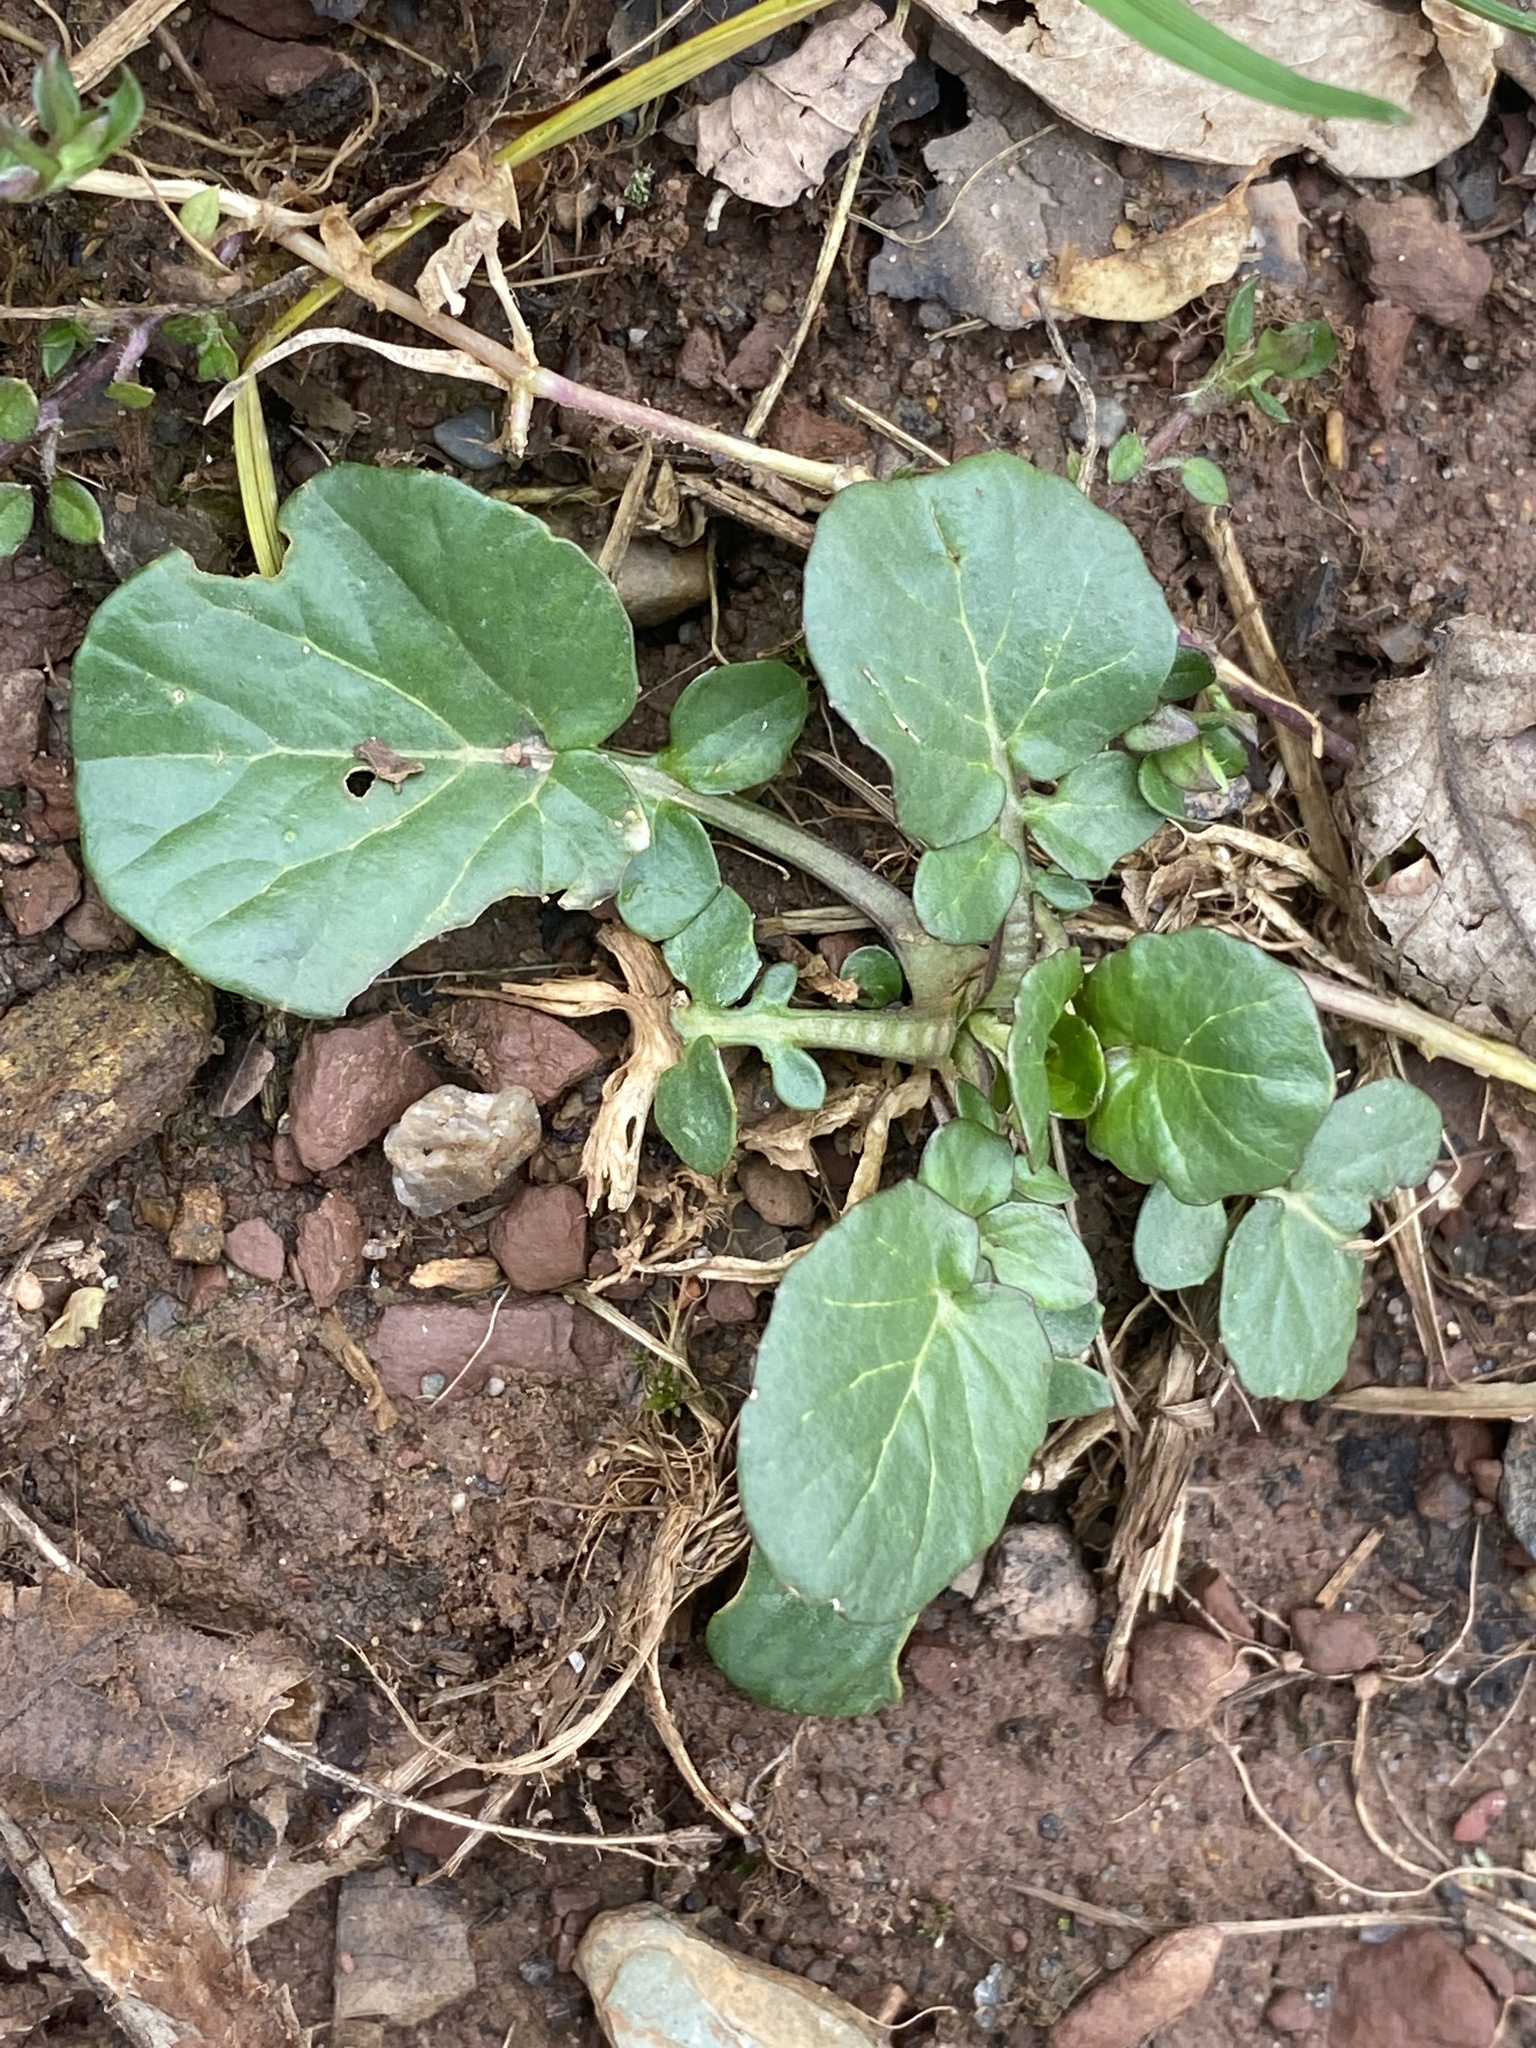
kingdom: Plantae
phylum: Tracheophyta
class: Magnoliopsida
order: Brassicales
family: Brassicaceae
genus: Barbarea
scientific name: Barbarea vulgaris
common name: Cressy-greens
